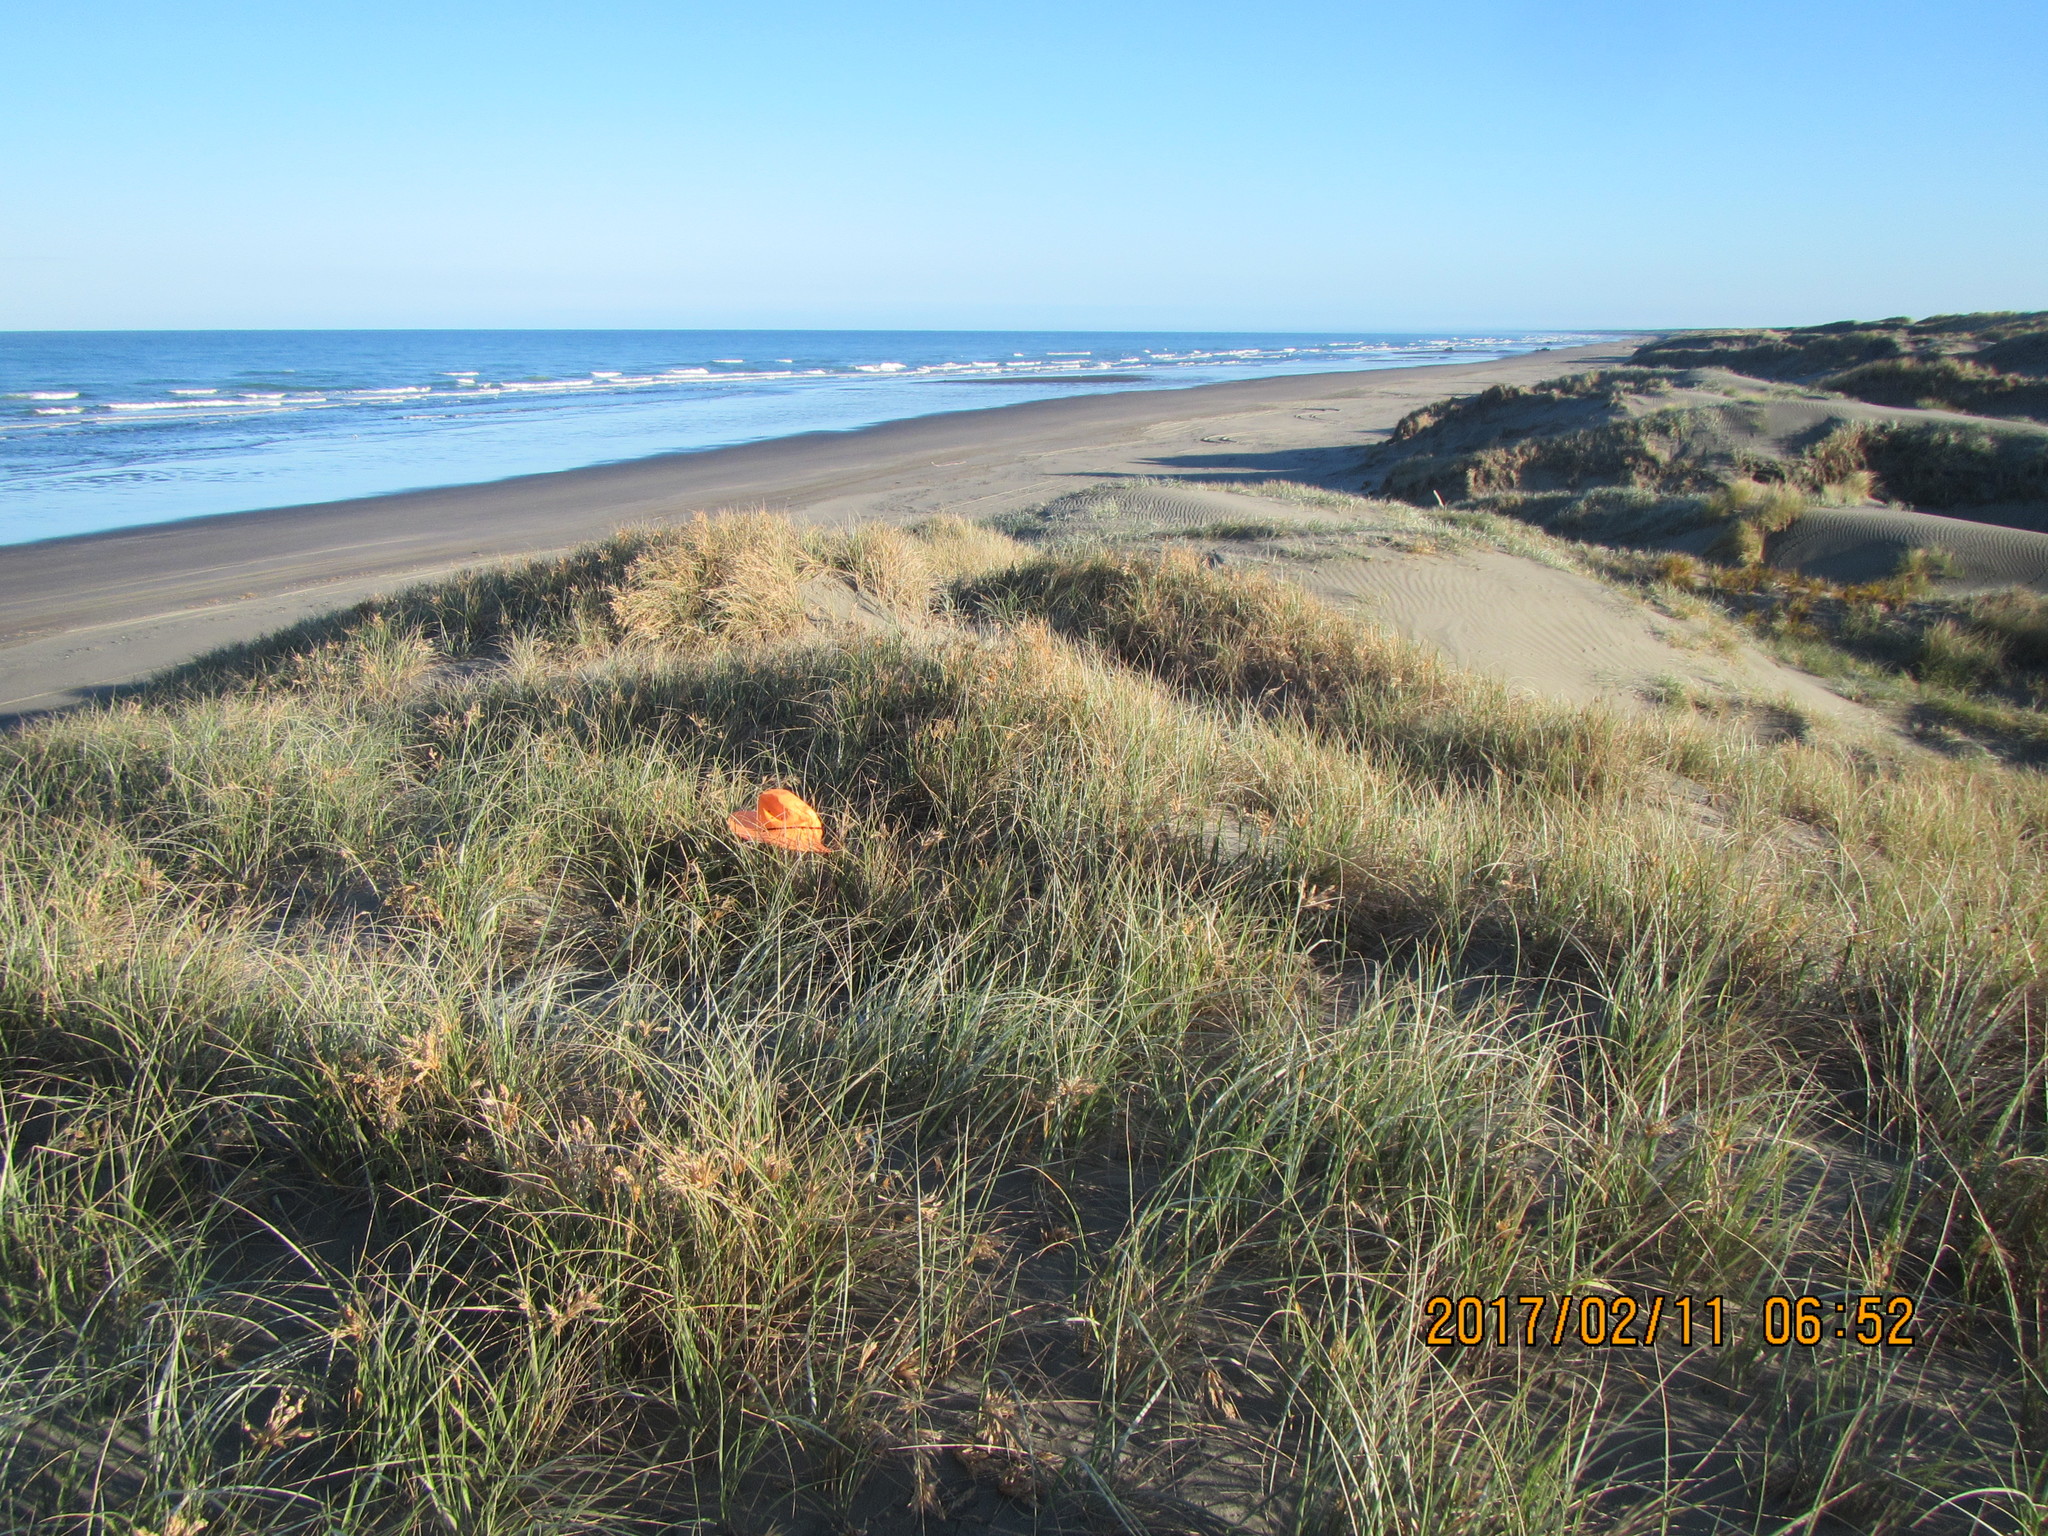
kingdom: Animalia
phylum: Arthropoda
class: Arachnida
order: Araneae
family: Theridiidae
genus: Latrodectus
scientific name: Latrodectus katipo
